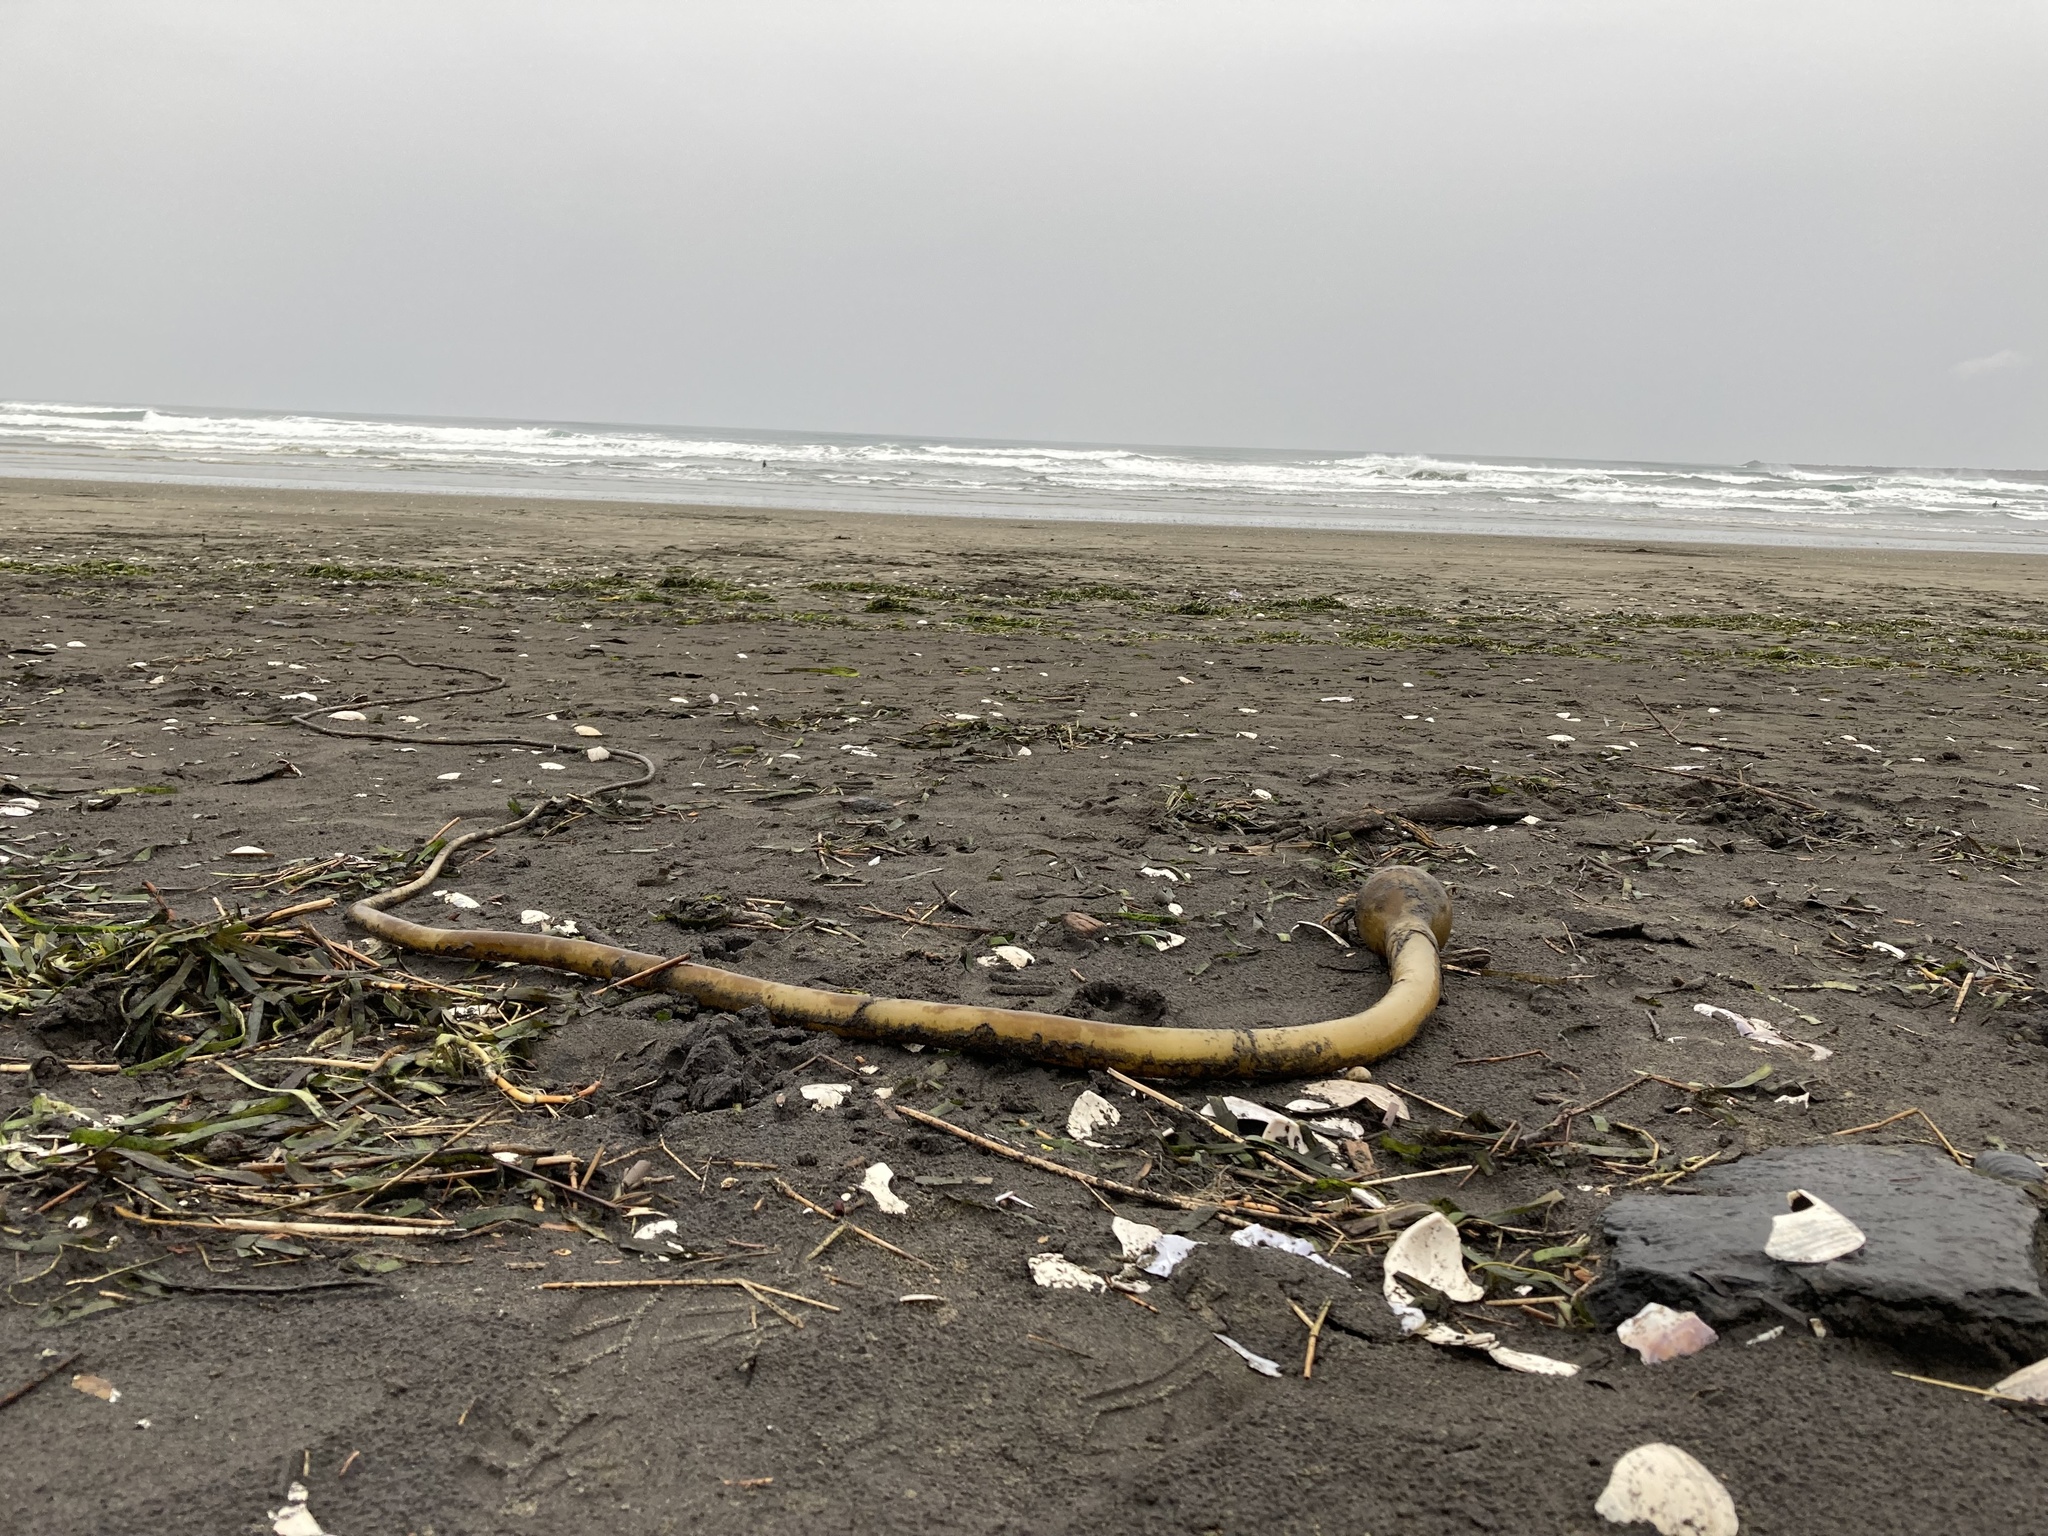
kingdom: Chromista
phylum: Ochrophyta
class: Phaeophyceae
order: Laminariales
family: Laminariaceae
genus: Nereocystis
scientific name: Nereocystis luetkeana
